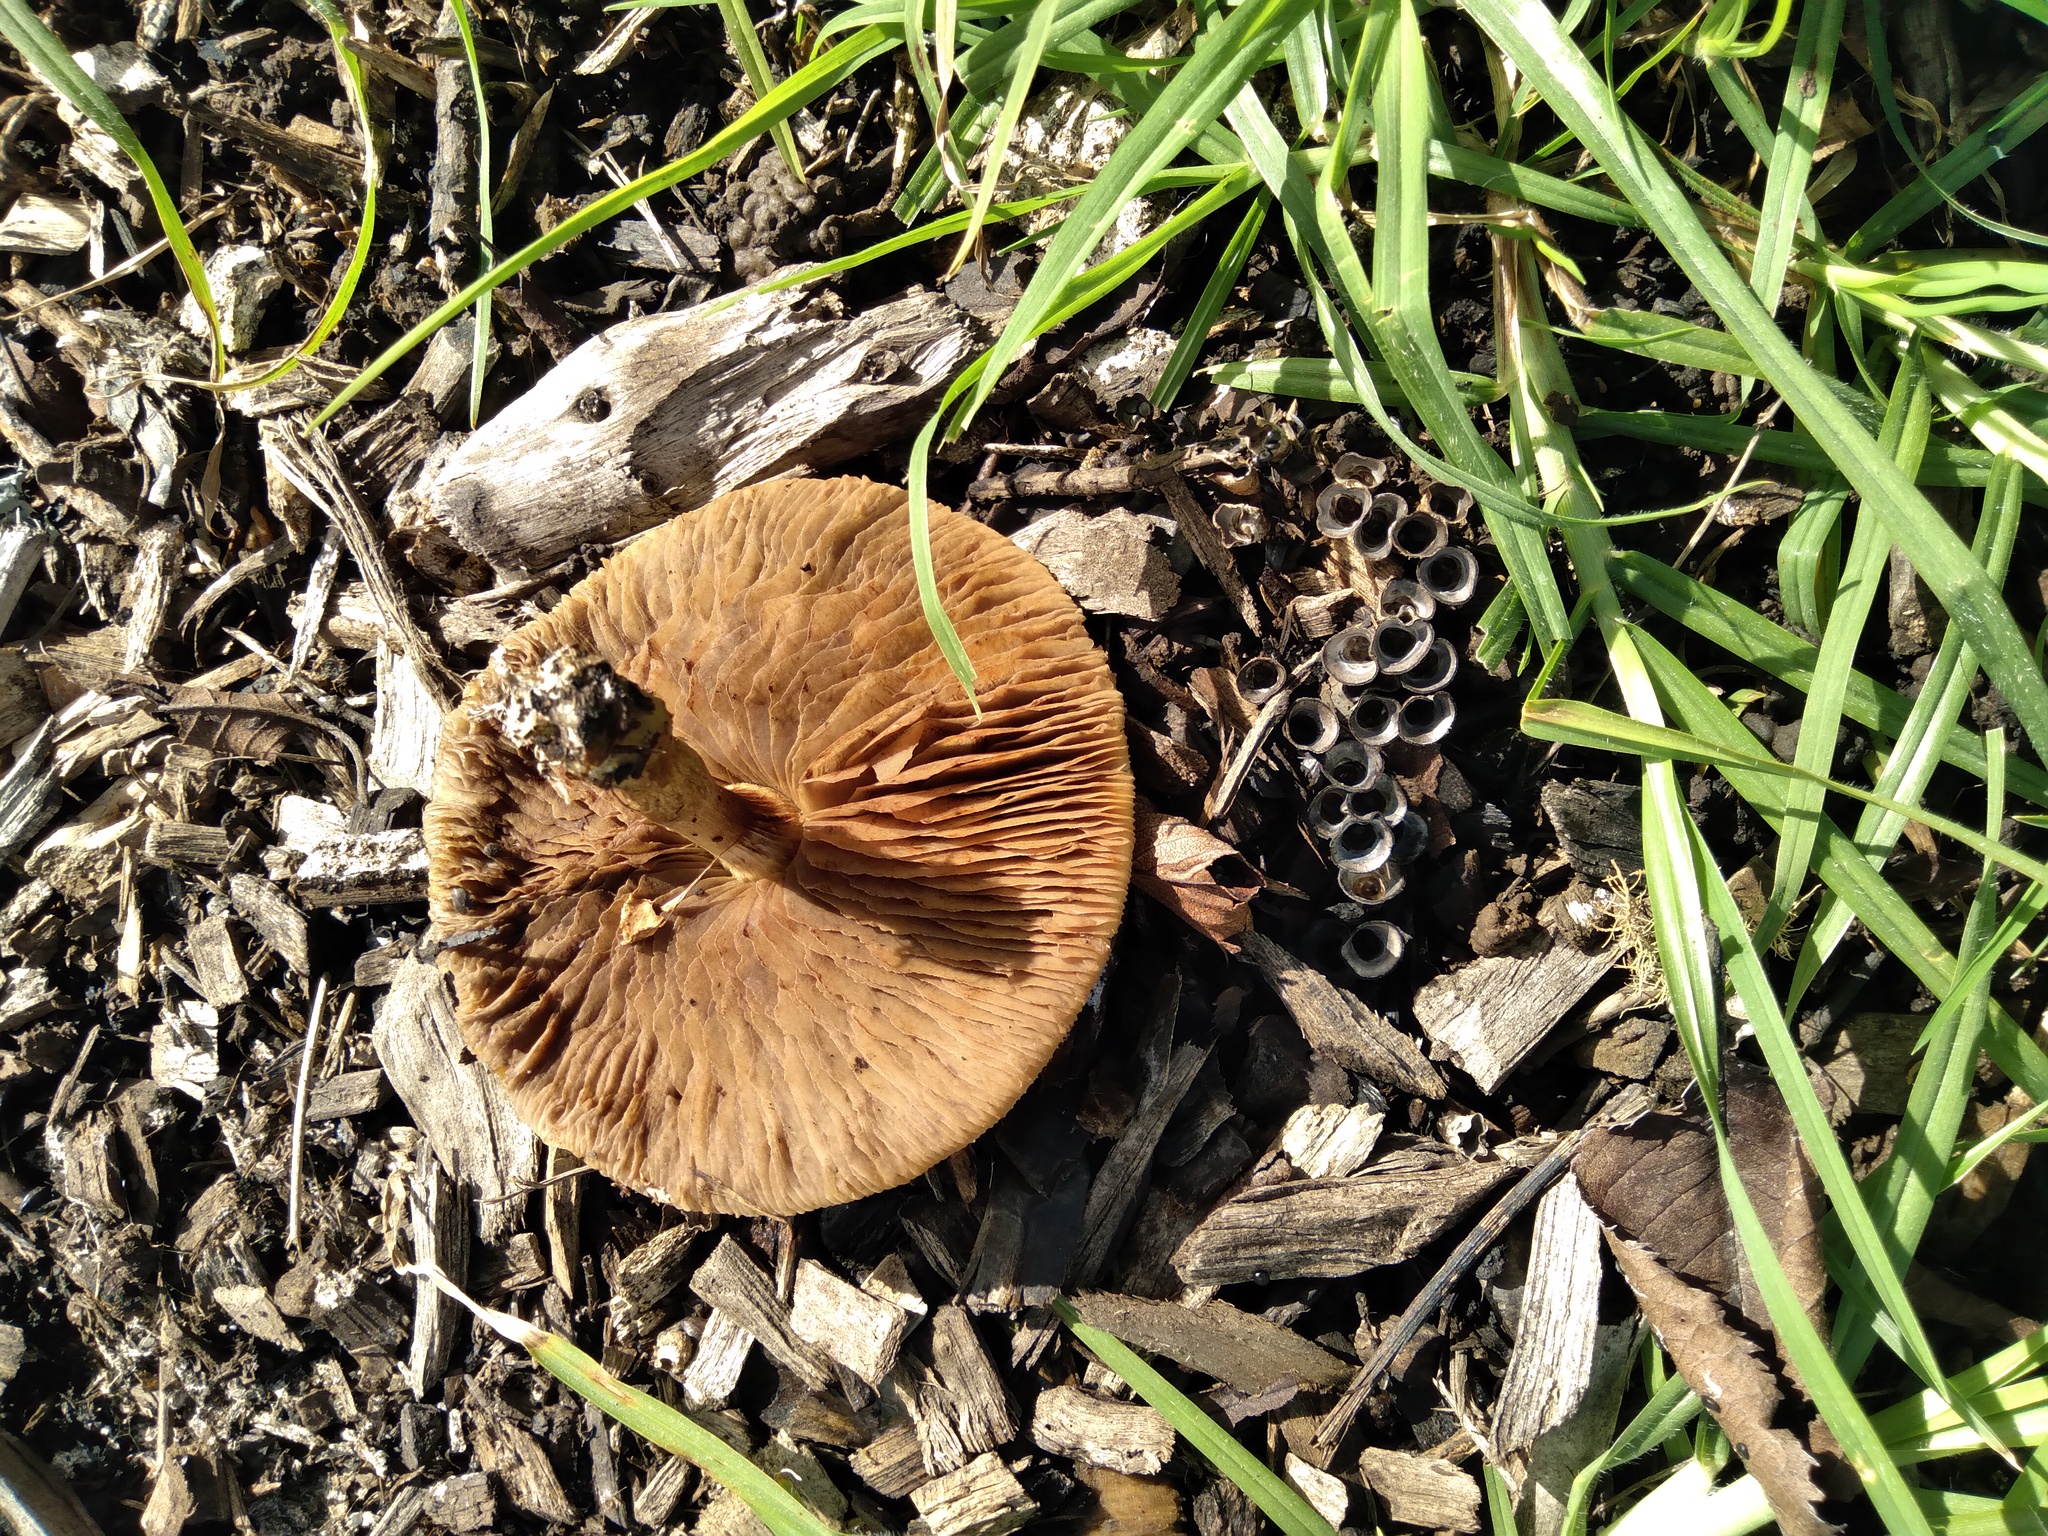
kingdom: Fungi
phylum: Basidiomycota
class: Agaricomycetes
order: Agaricales
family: Strophariaceae
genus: Agrocybe
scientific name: Agrocybe praecox
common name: Spring fieldcap
